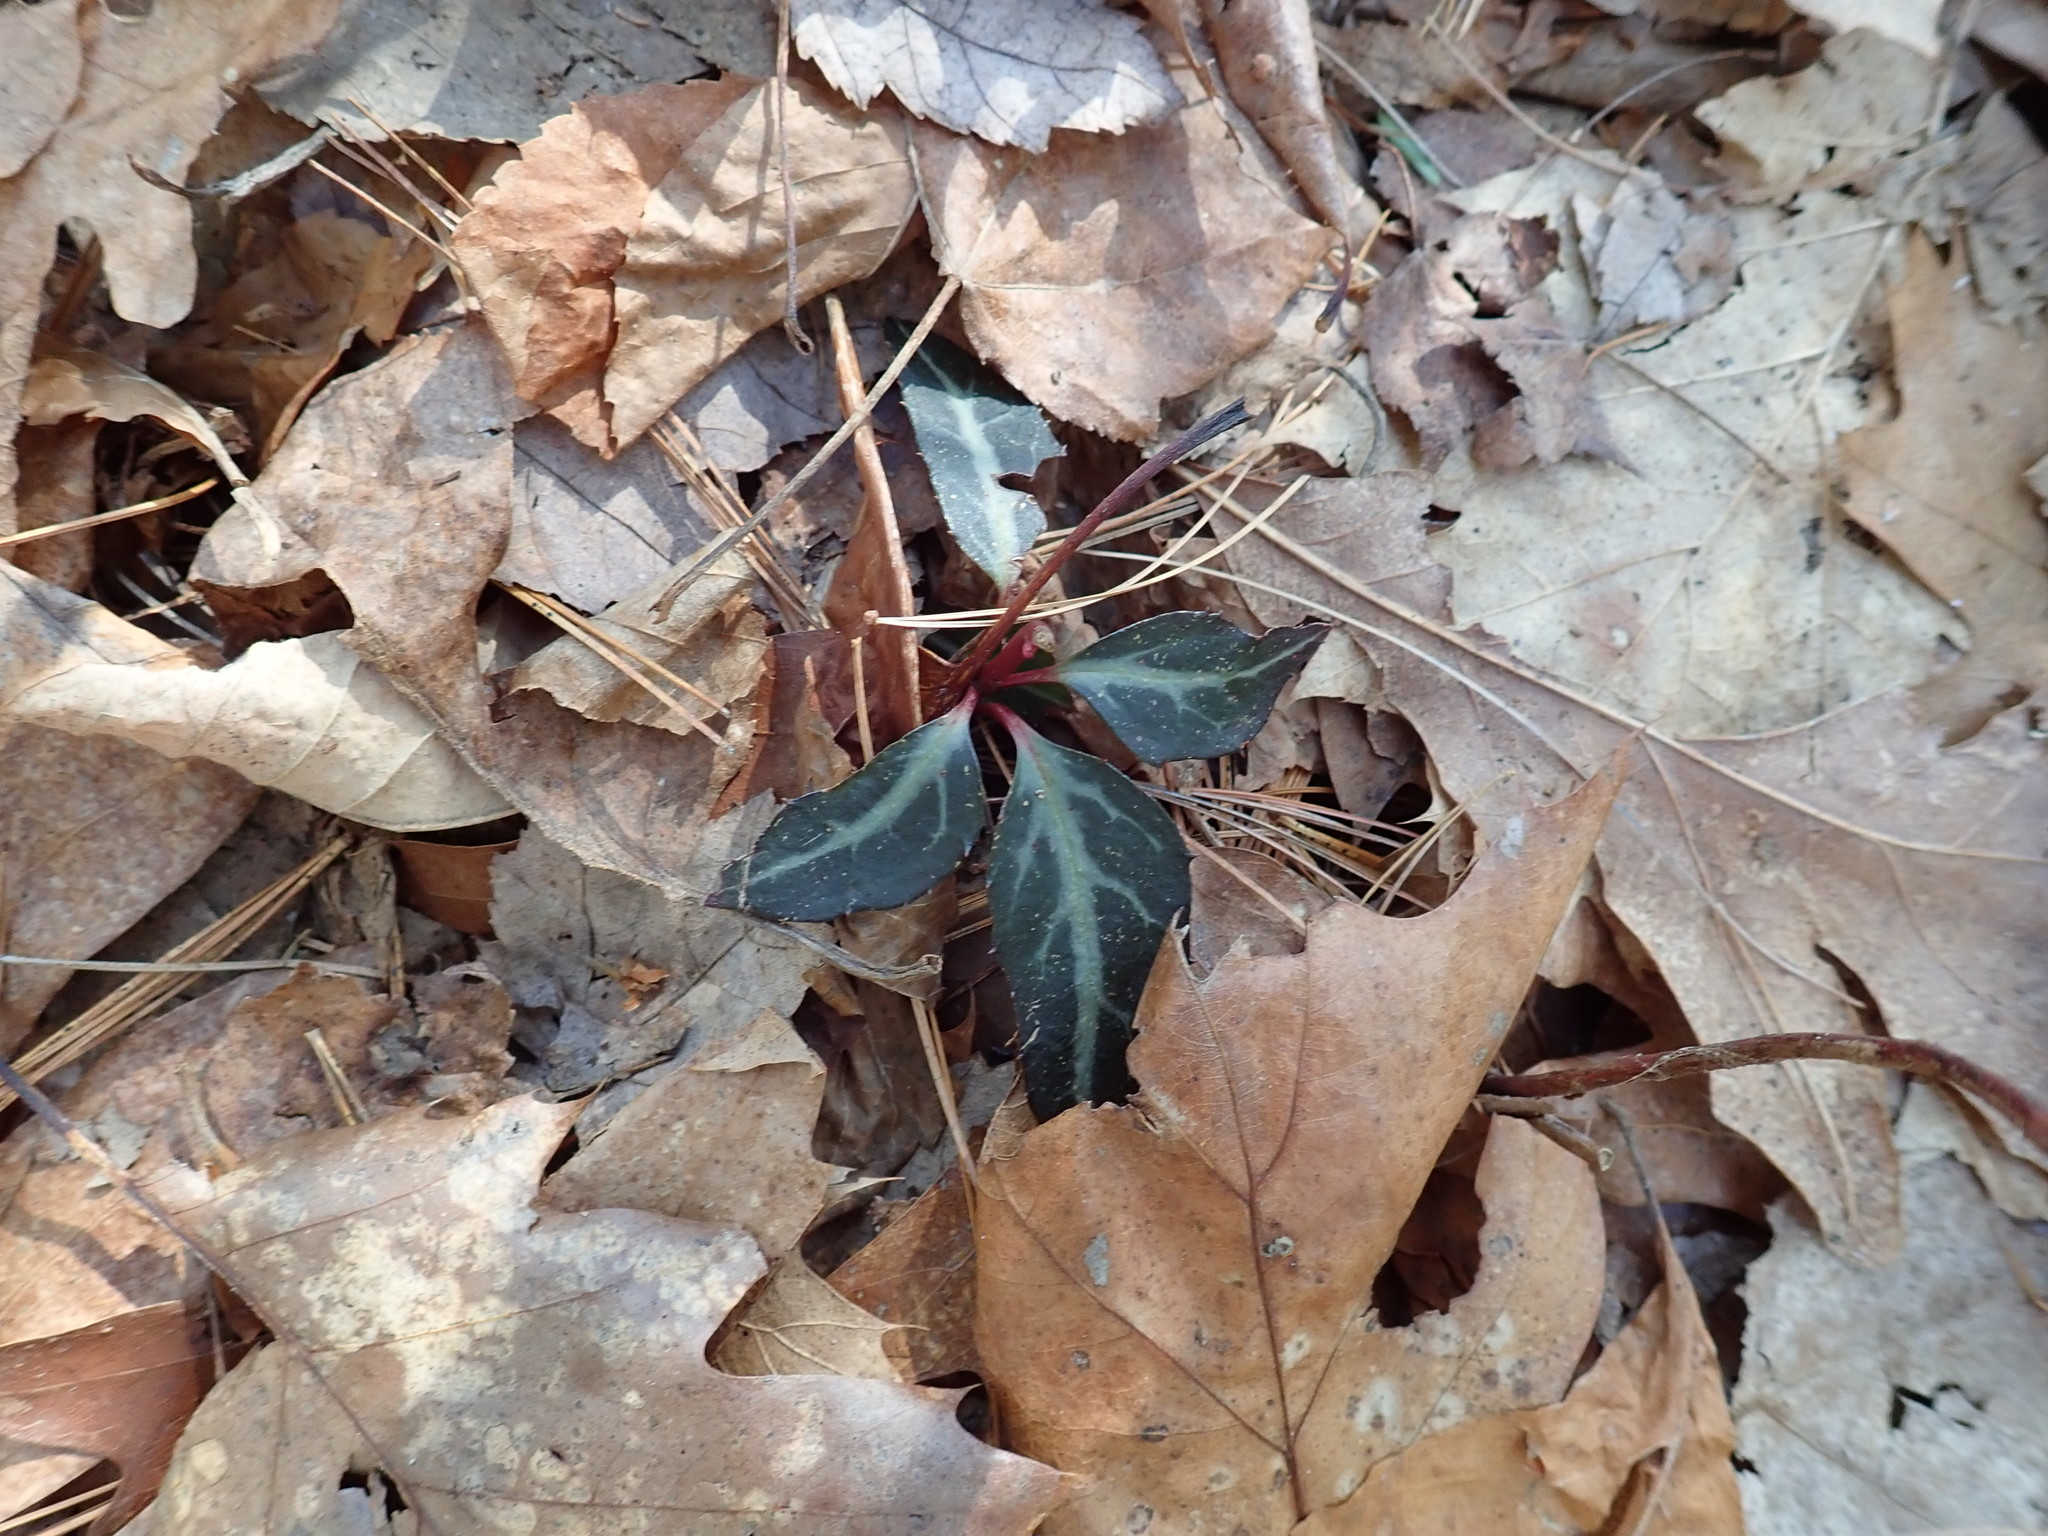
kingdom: Plantae
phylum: Tracheophyta
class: Magnoliopsida
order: Ericales
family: Ericaceae
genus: Chimaphila
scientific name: Chimaphila maculata
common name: Spotted pipsissewa
